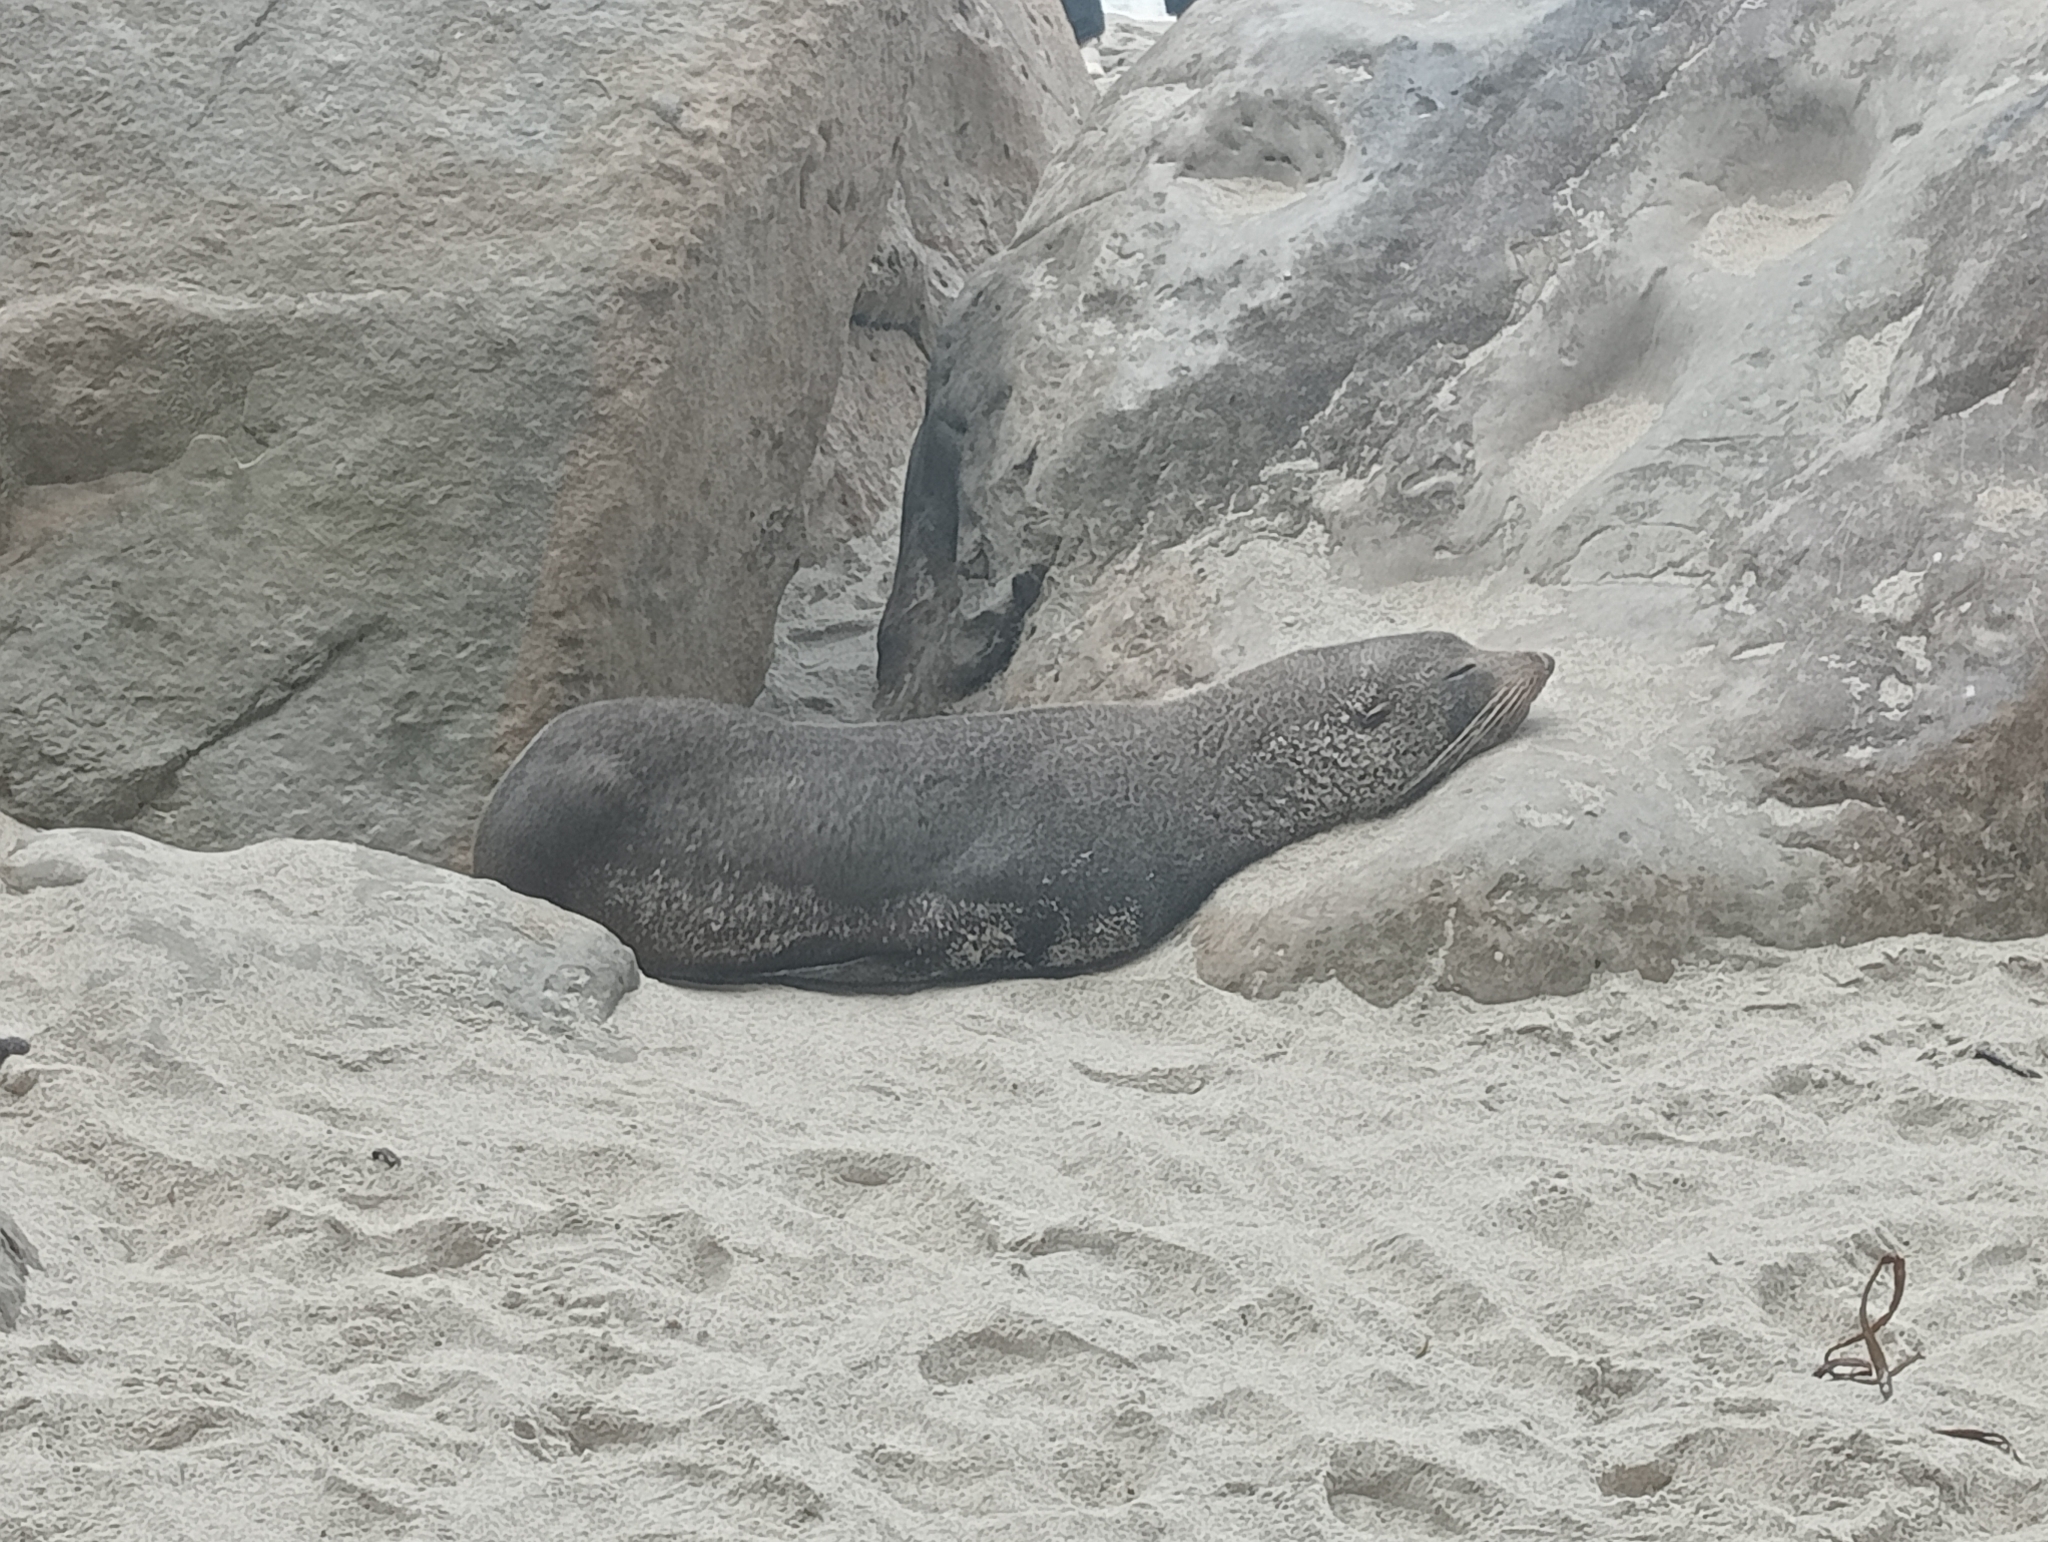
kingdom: Animalia
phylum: Chordata
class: Mammalia
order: Carnivora
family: Otariidae
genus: Arctocephalus
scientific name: Arctocephalus forsteri
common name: New zealand fur seal
